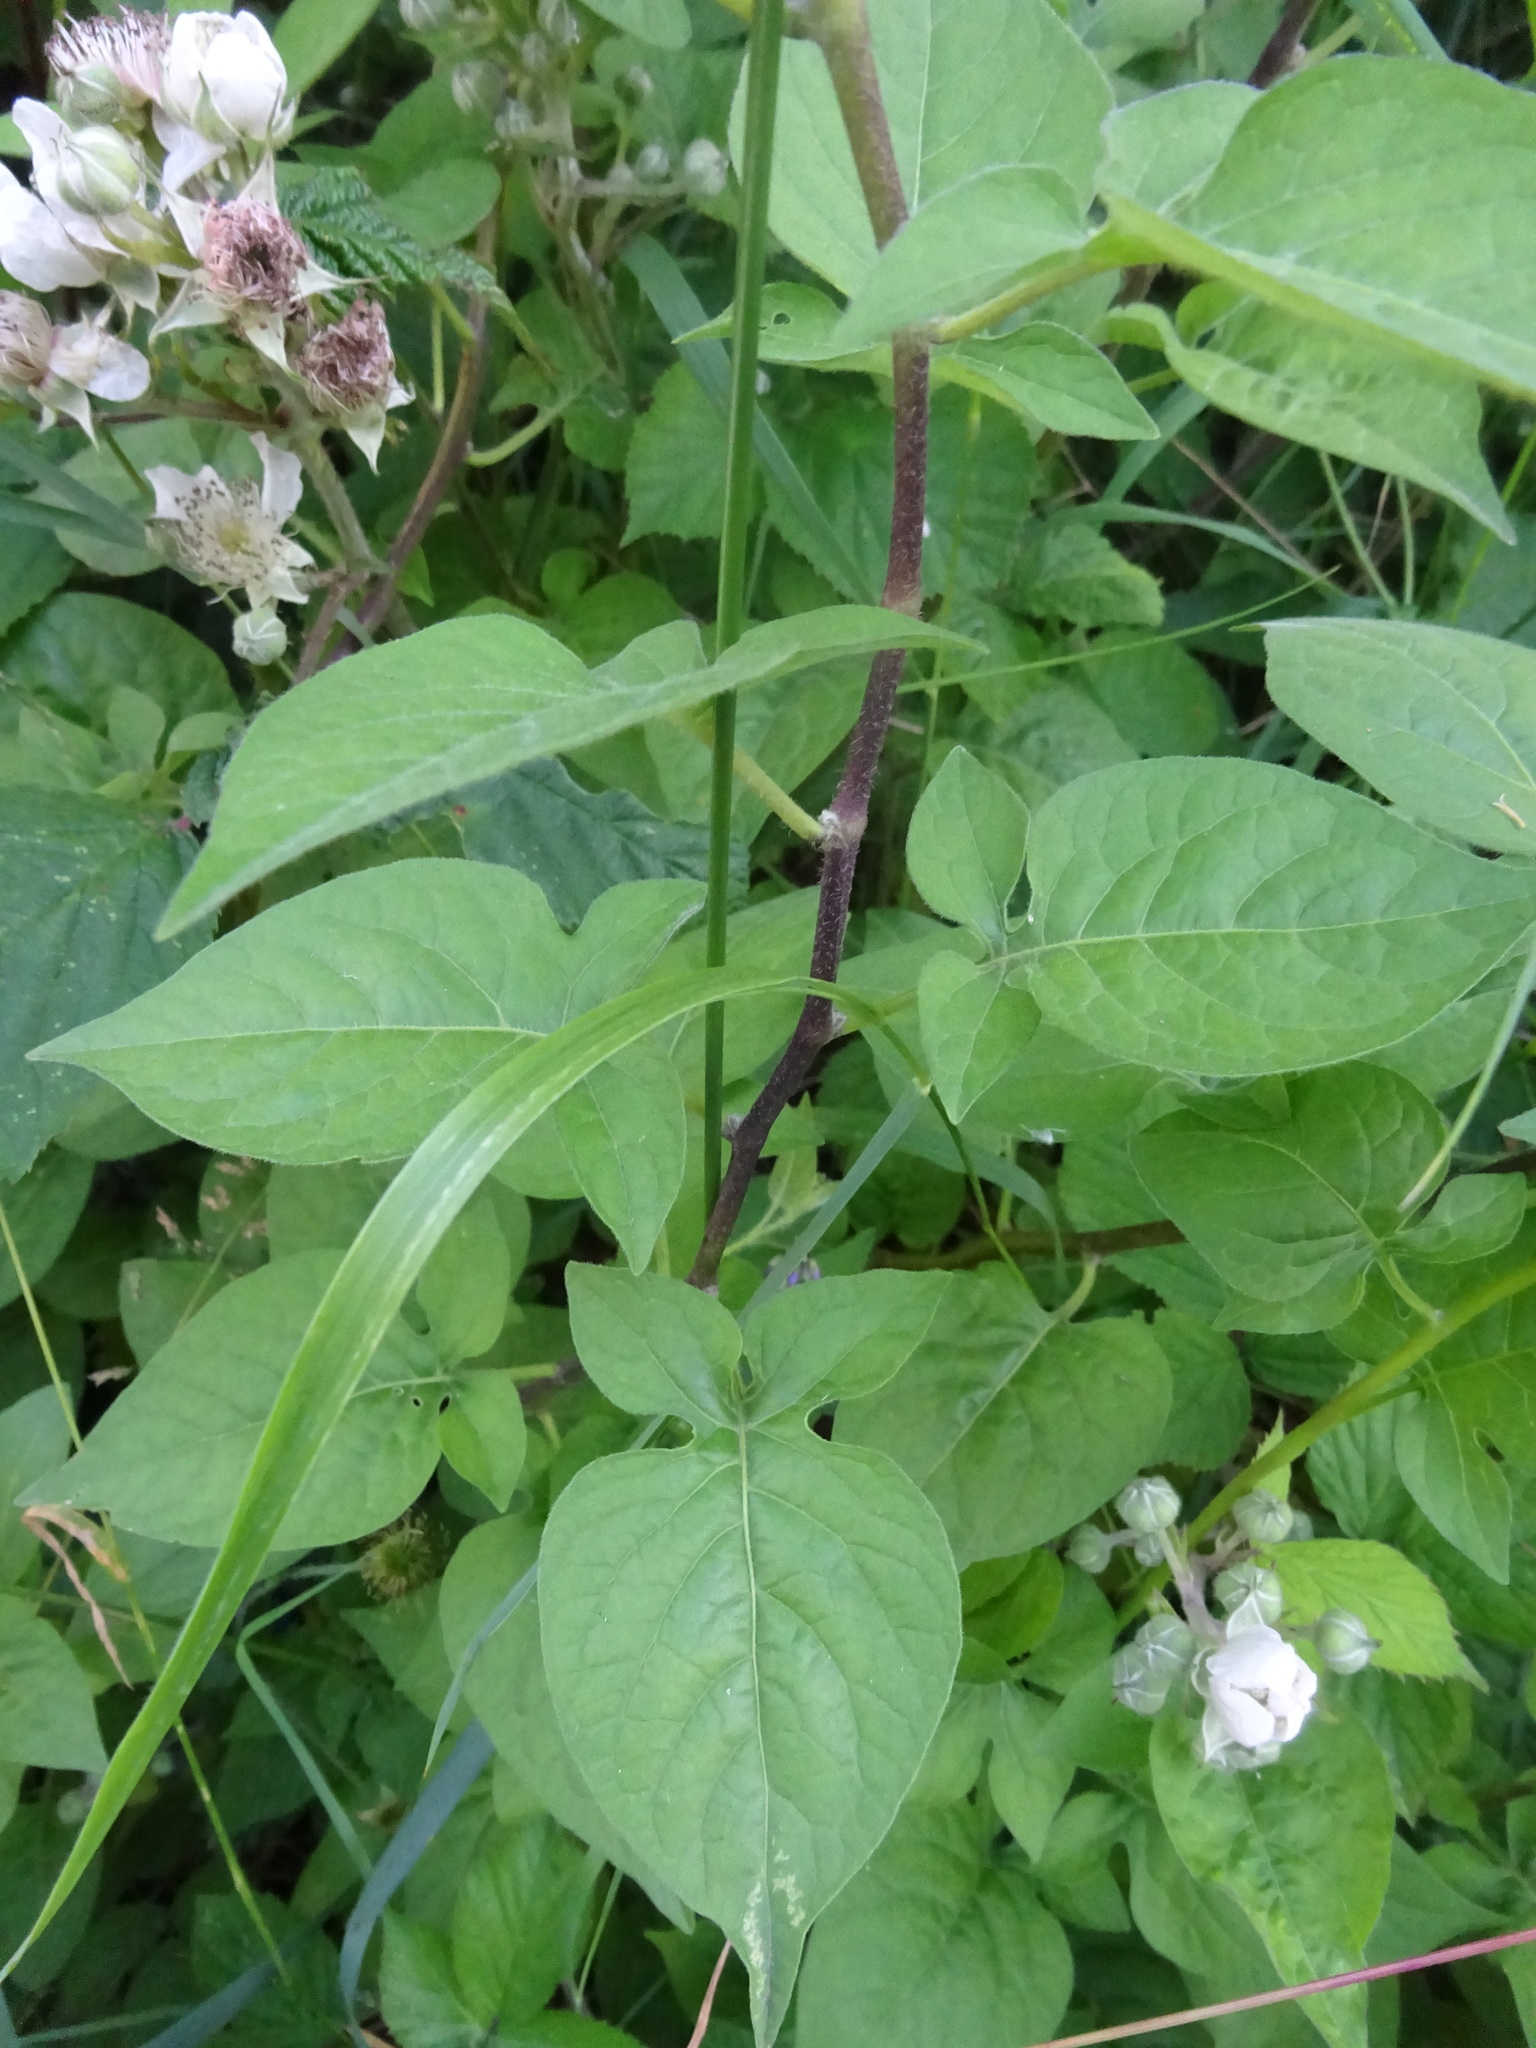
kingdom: Plantae
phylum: Tracheophyta
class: Magnoliopsida
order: Solanales
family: Solanaceae
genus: Solanum
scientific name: Solanum dulcamara
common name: Climbing nightshade
